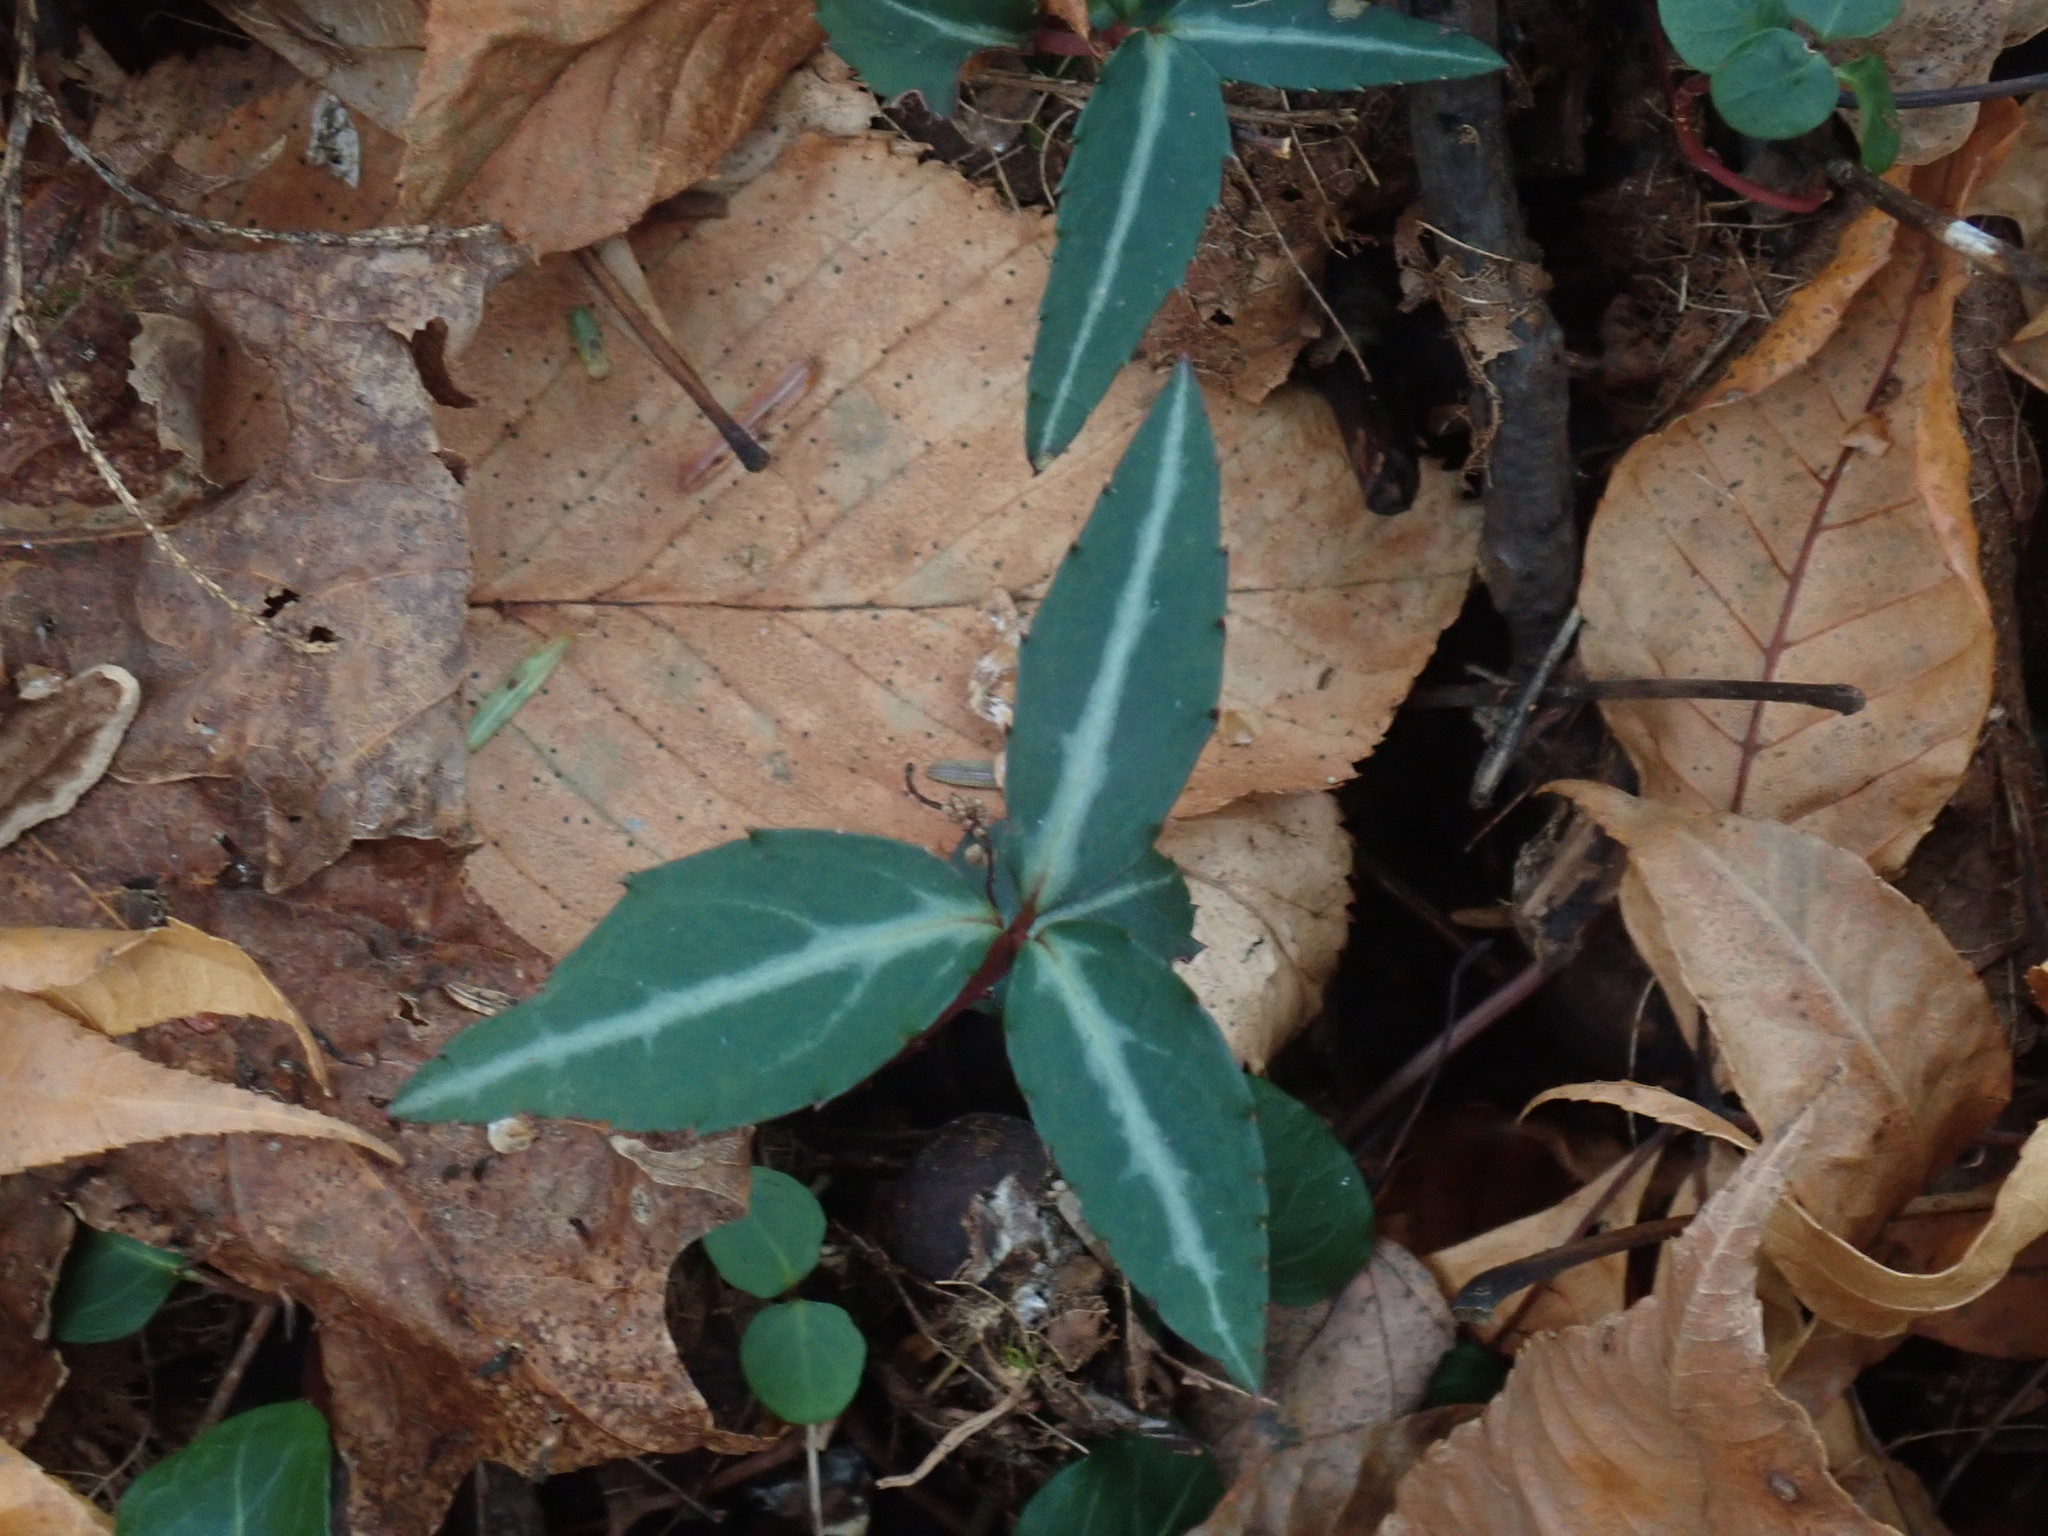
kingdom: Plantae
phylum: Tracheophyta
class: Magnoliopsida
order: Ericales
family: Ericaceae
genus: Chimaphila
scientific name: Chimaphila maculata
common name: Spotted pipsissewa
